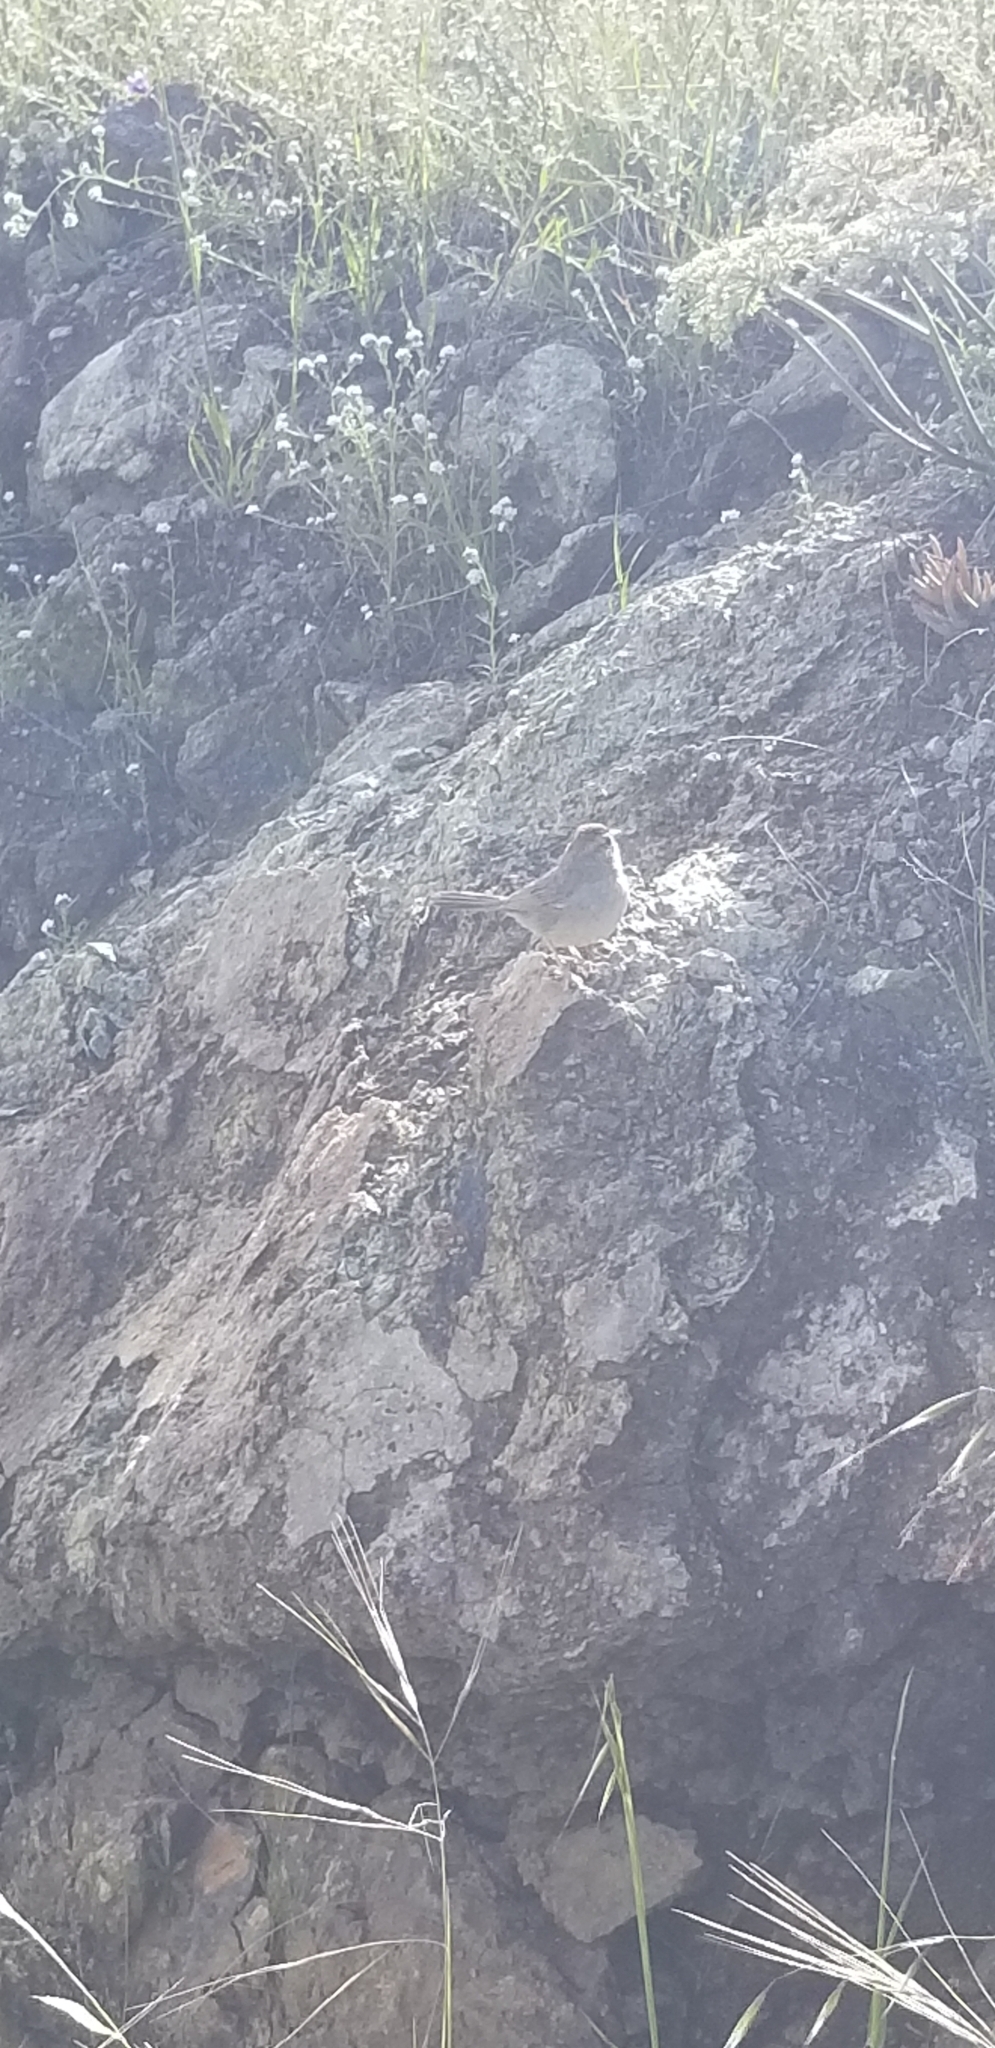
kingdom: Animalia
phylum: Chordata
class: Aves
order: Passeriformes
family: Passerellidae
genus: Aimophila
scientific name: Aimophila ruficeps
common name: Rufous-crowned sparrow
